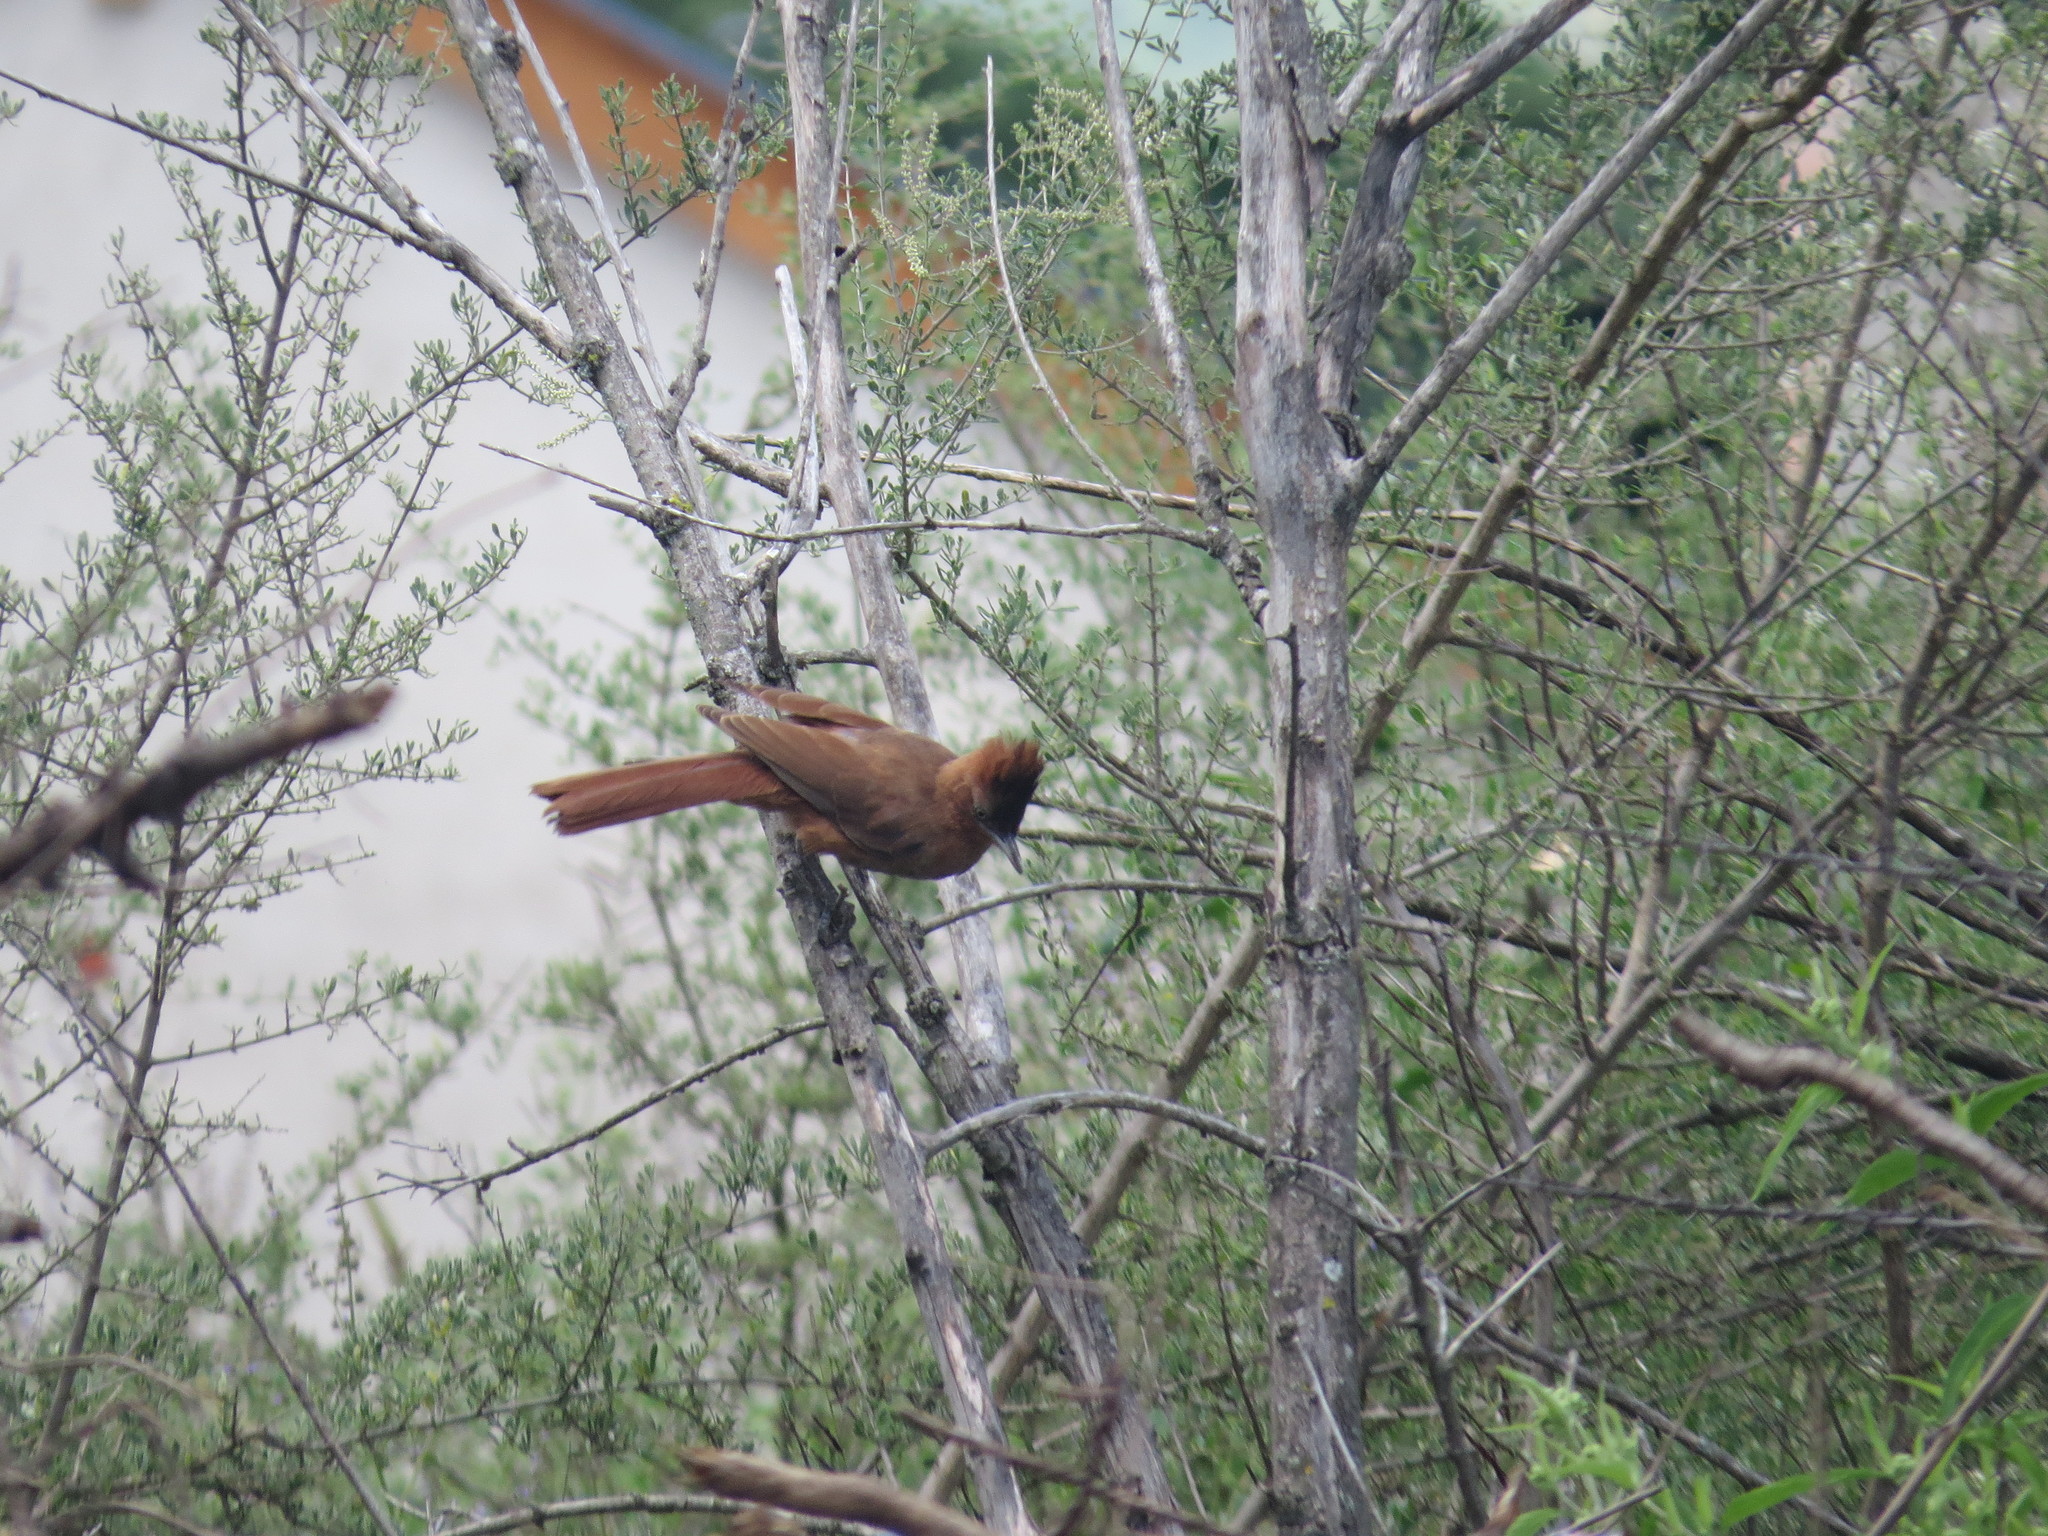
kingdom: Animalia
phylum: Chordata
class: Aves
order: Passeriformes
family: Furnariidae
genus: Pseudoseisura
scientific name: Pseudoseisura lophotes
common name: Brown cacholote
